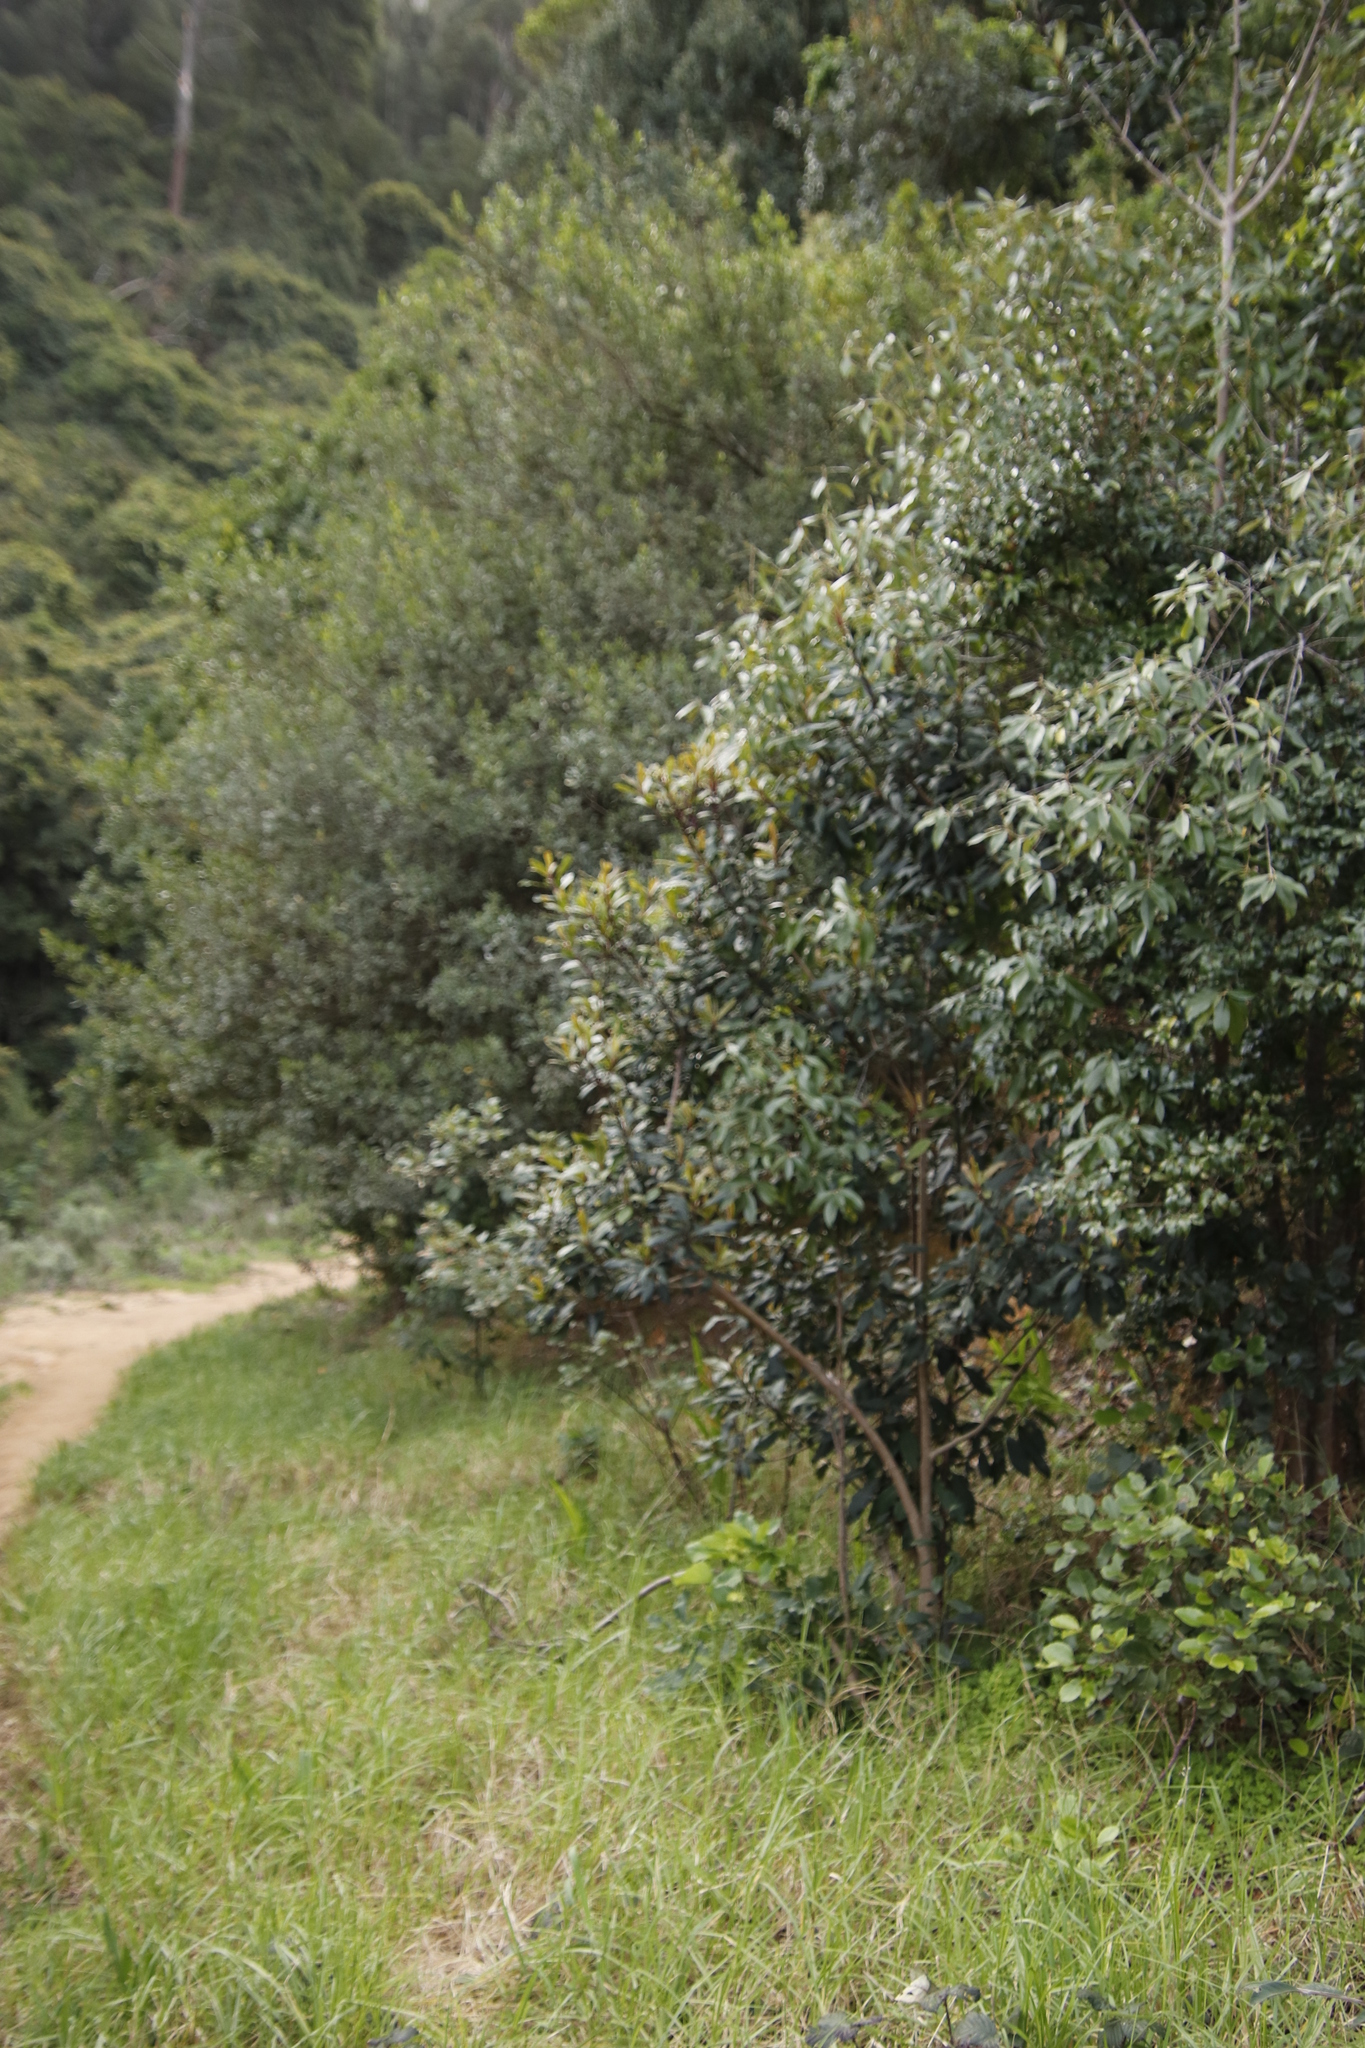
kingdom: Plantae
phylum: Tracheophyta
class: Magnoliopsida
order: Ericales
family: Primulaceae
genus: Myrsine
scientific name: Myrsine melanophloeos
